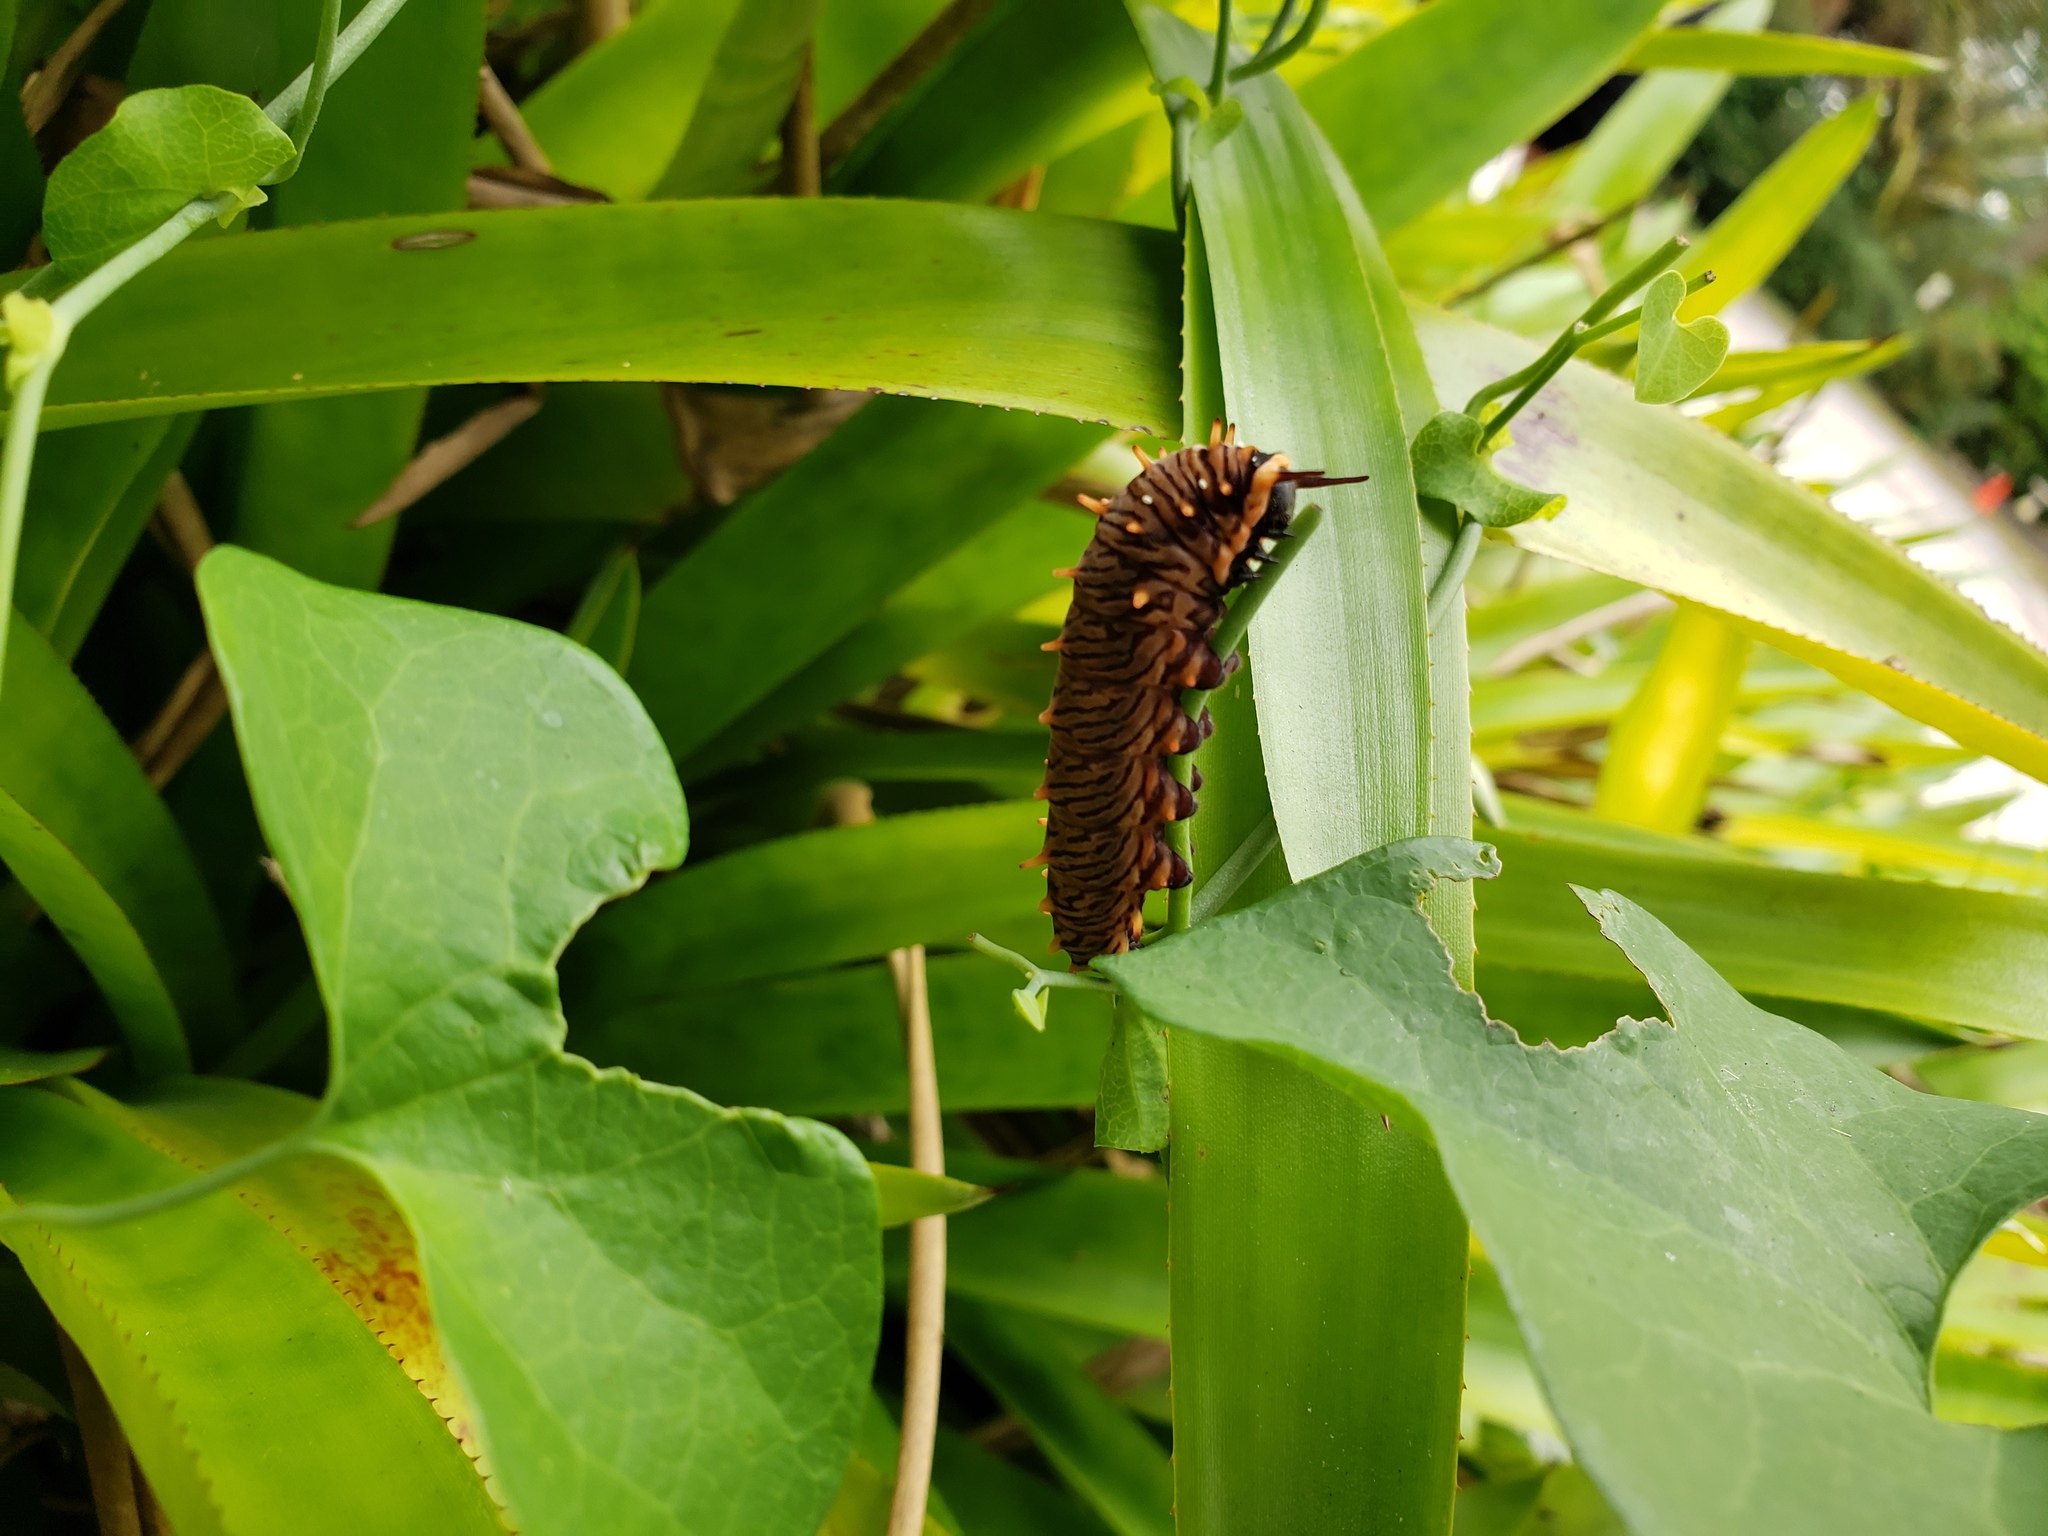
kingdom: Animalia
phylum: Arthropoda
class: Insecta
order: Lepidoptera
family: Papilionidae
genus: Battus
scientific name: Battus polydamas
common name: Polydamas swallowtail
